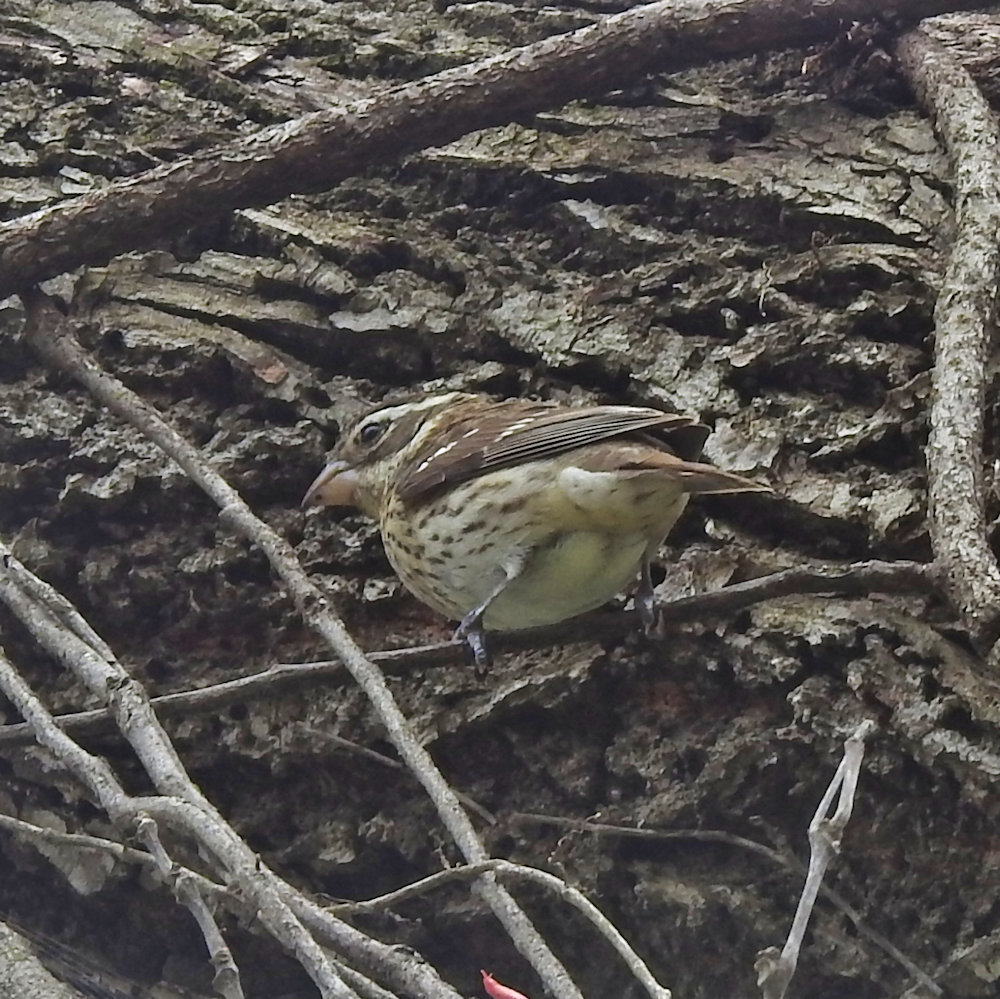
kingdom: Animalia
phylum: Chordata
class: Aves
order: Passeriformes
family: Cardinalidae
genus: Pheucticus
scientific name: Pheucticus ludovicianus
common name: Rose-breasted grosbeak
